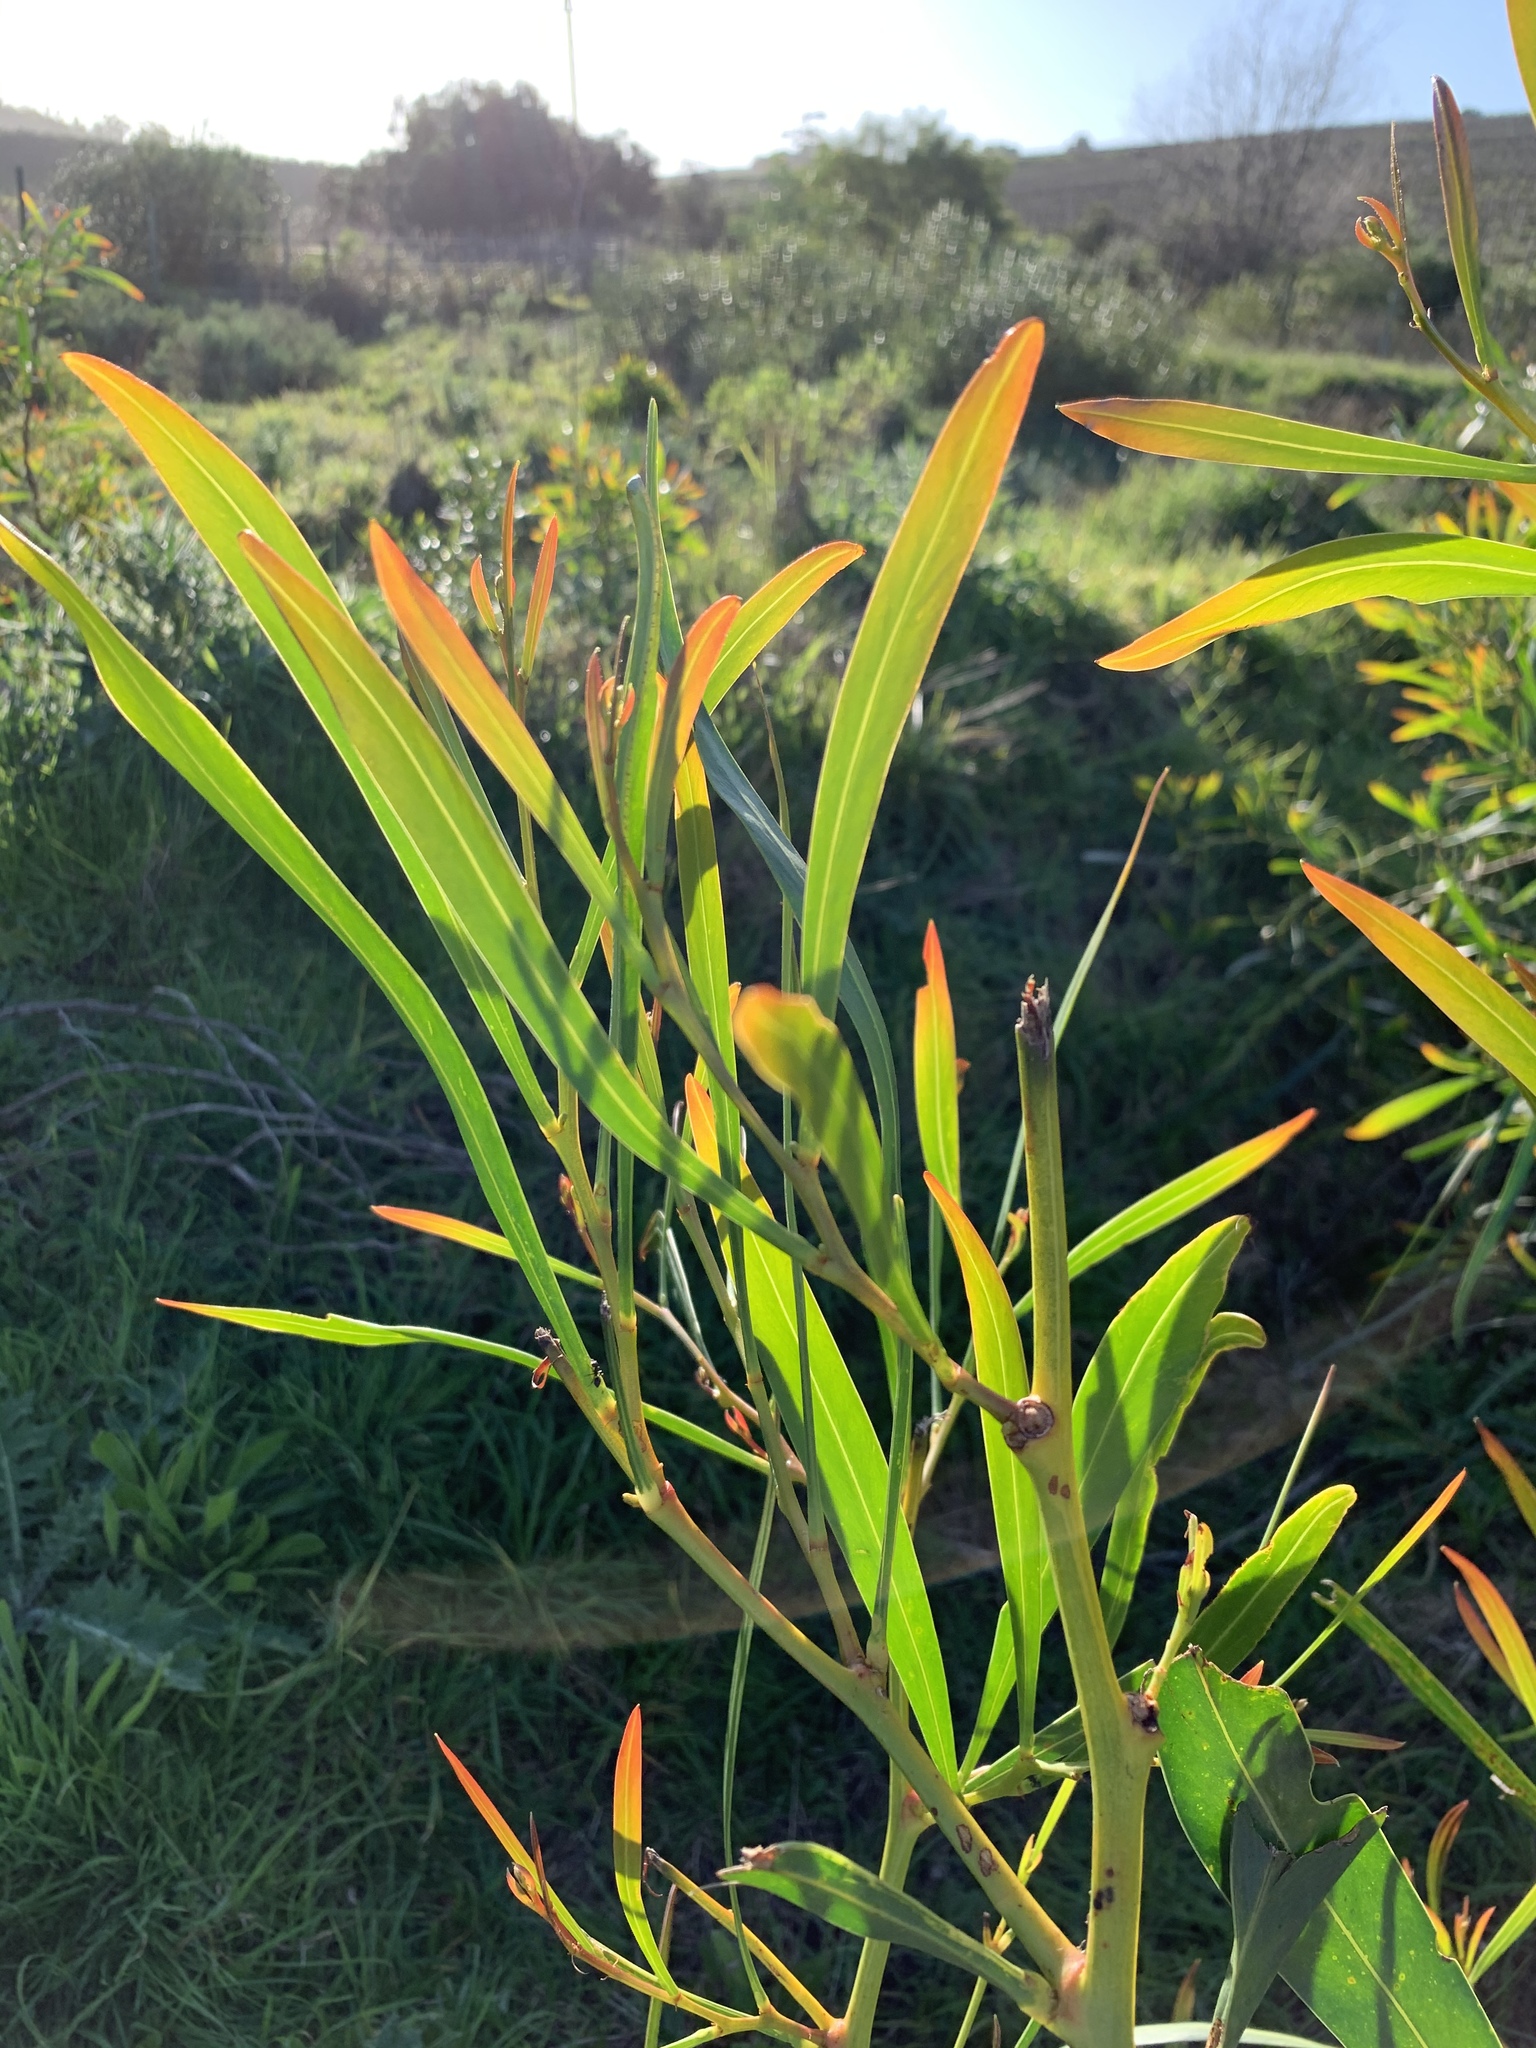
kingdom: Plantae
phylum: Tracheophyta
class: Magnoliopsida
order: Fabales
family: Fabaceae
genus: Acacia
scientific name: Acacia saligna
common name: Orange wattle
